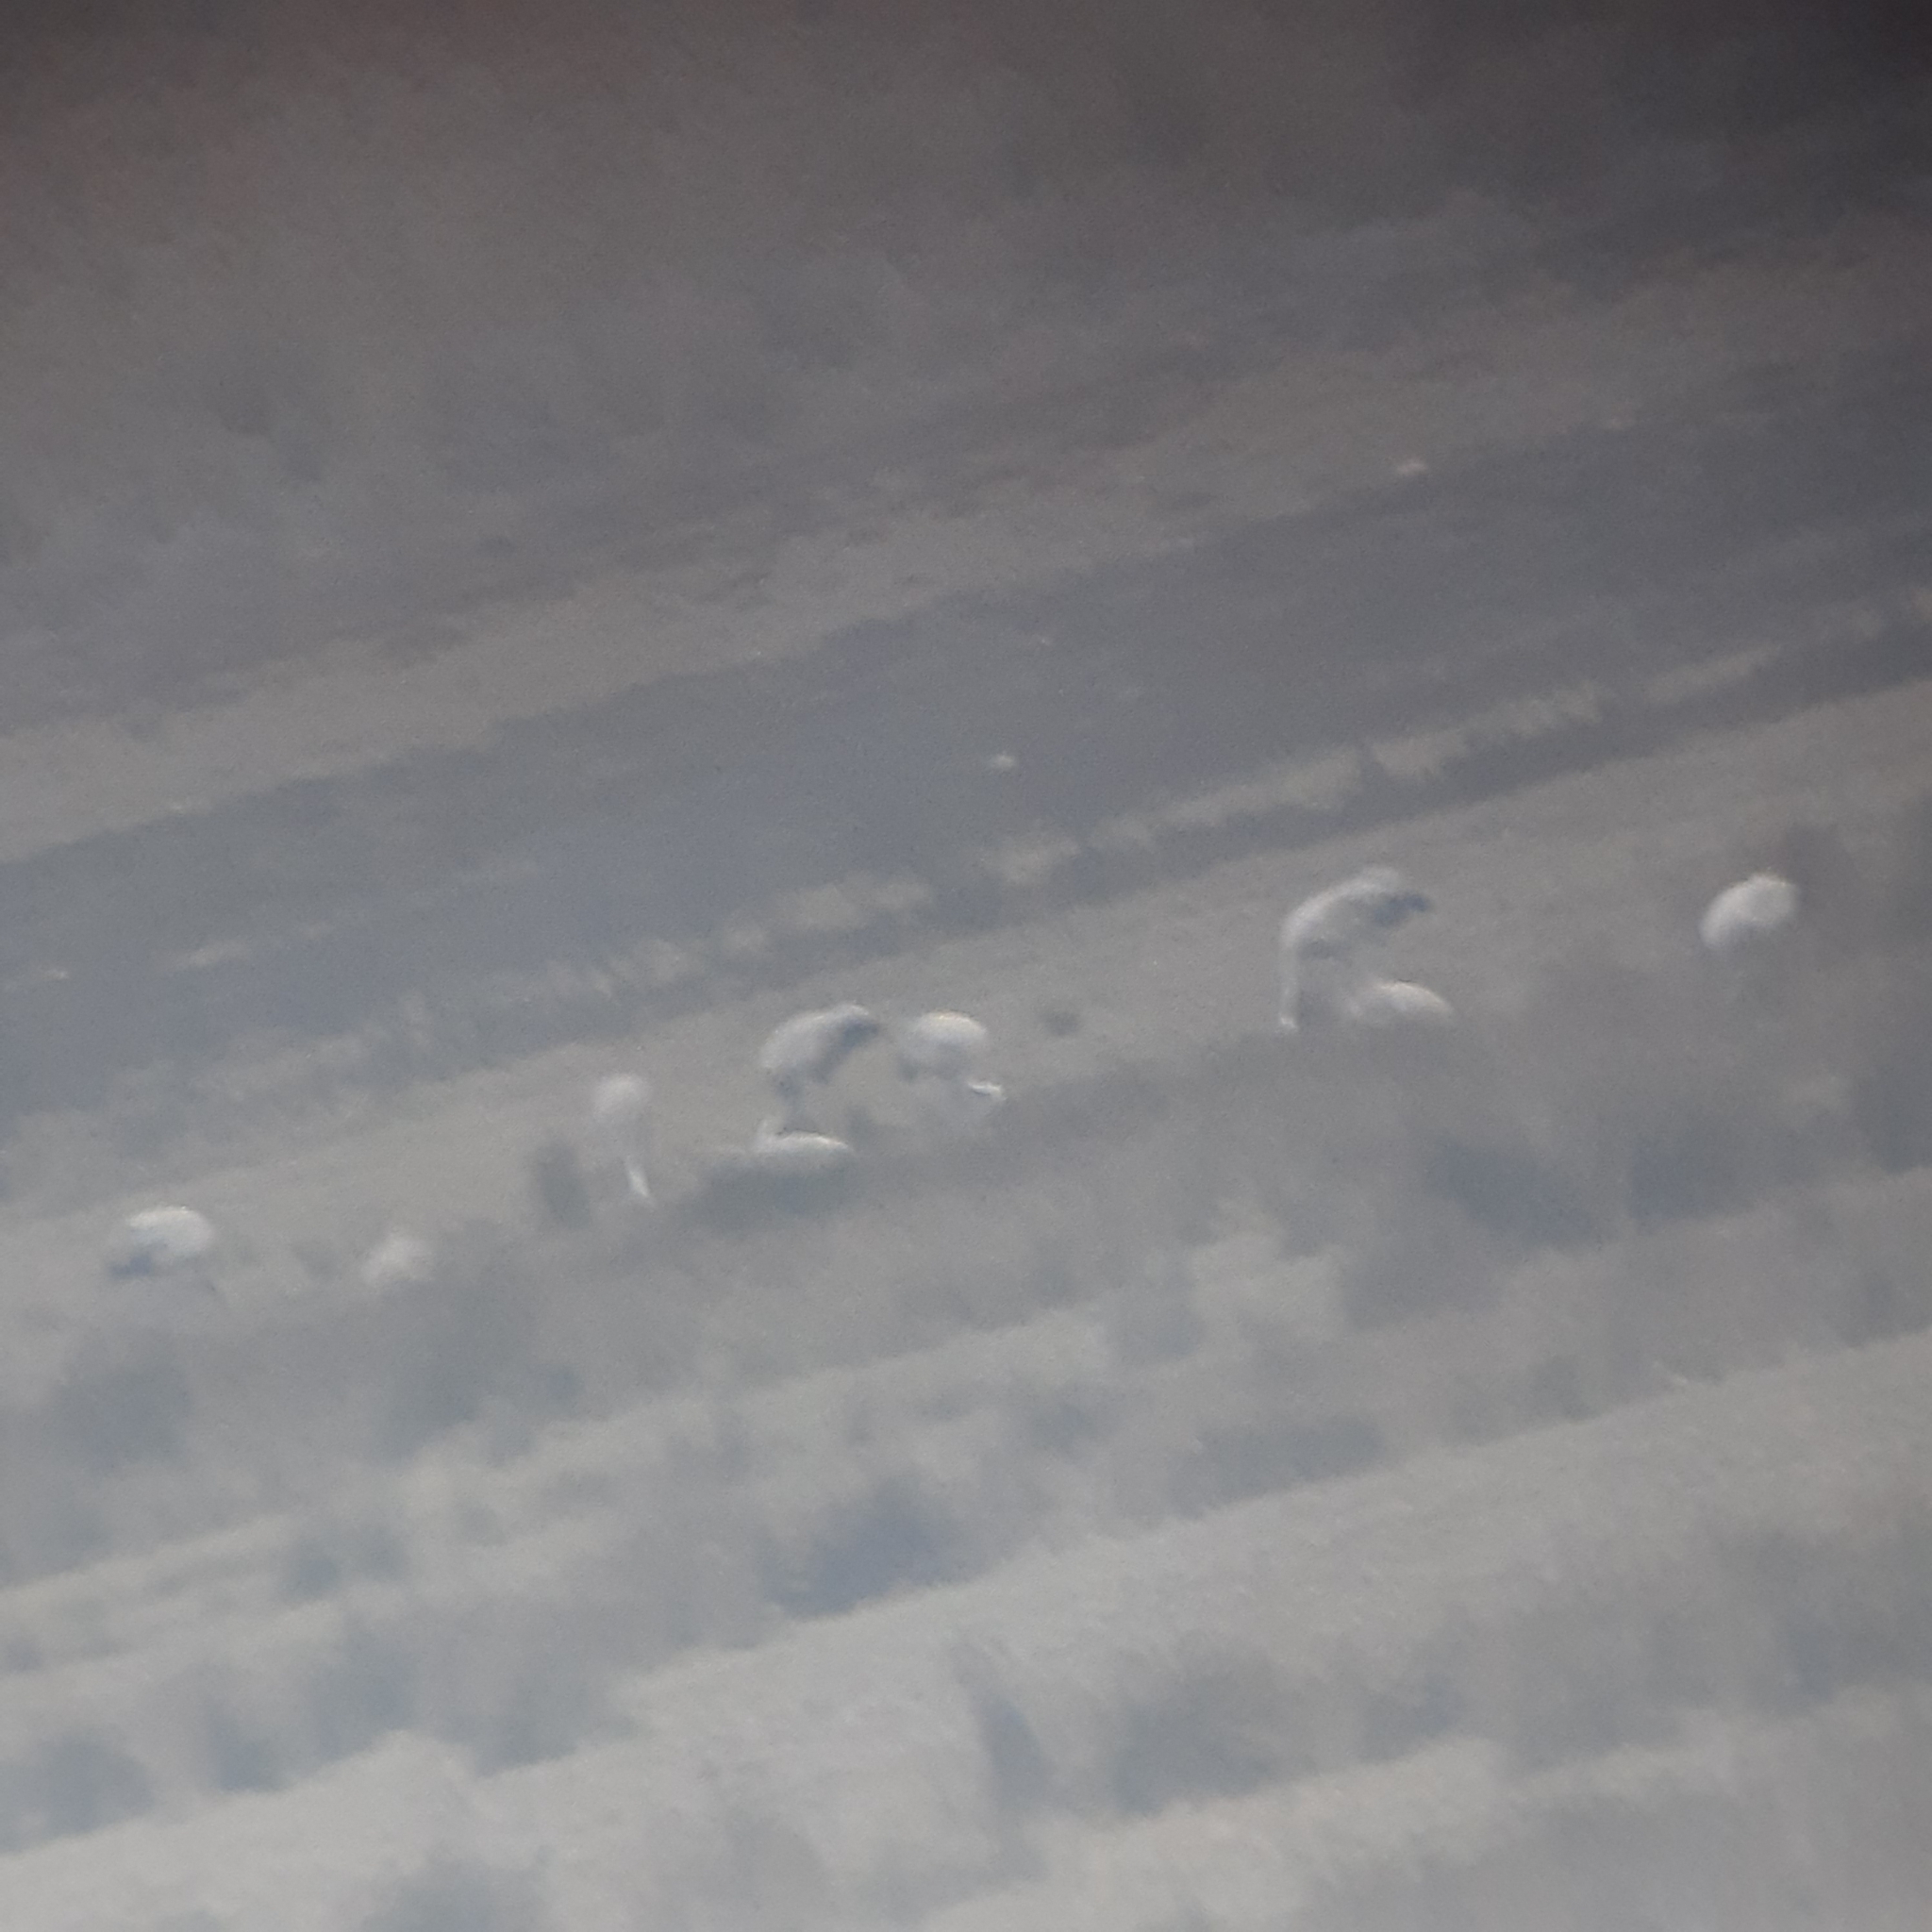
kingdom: Animalia
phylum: Chordata
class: Aves
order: Gruiformes
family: Gruidae
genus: Grus
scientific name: Grus grus
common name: Common crane
